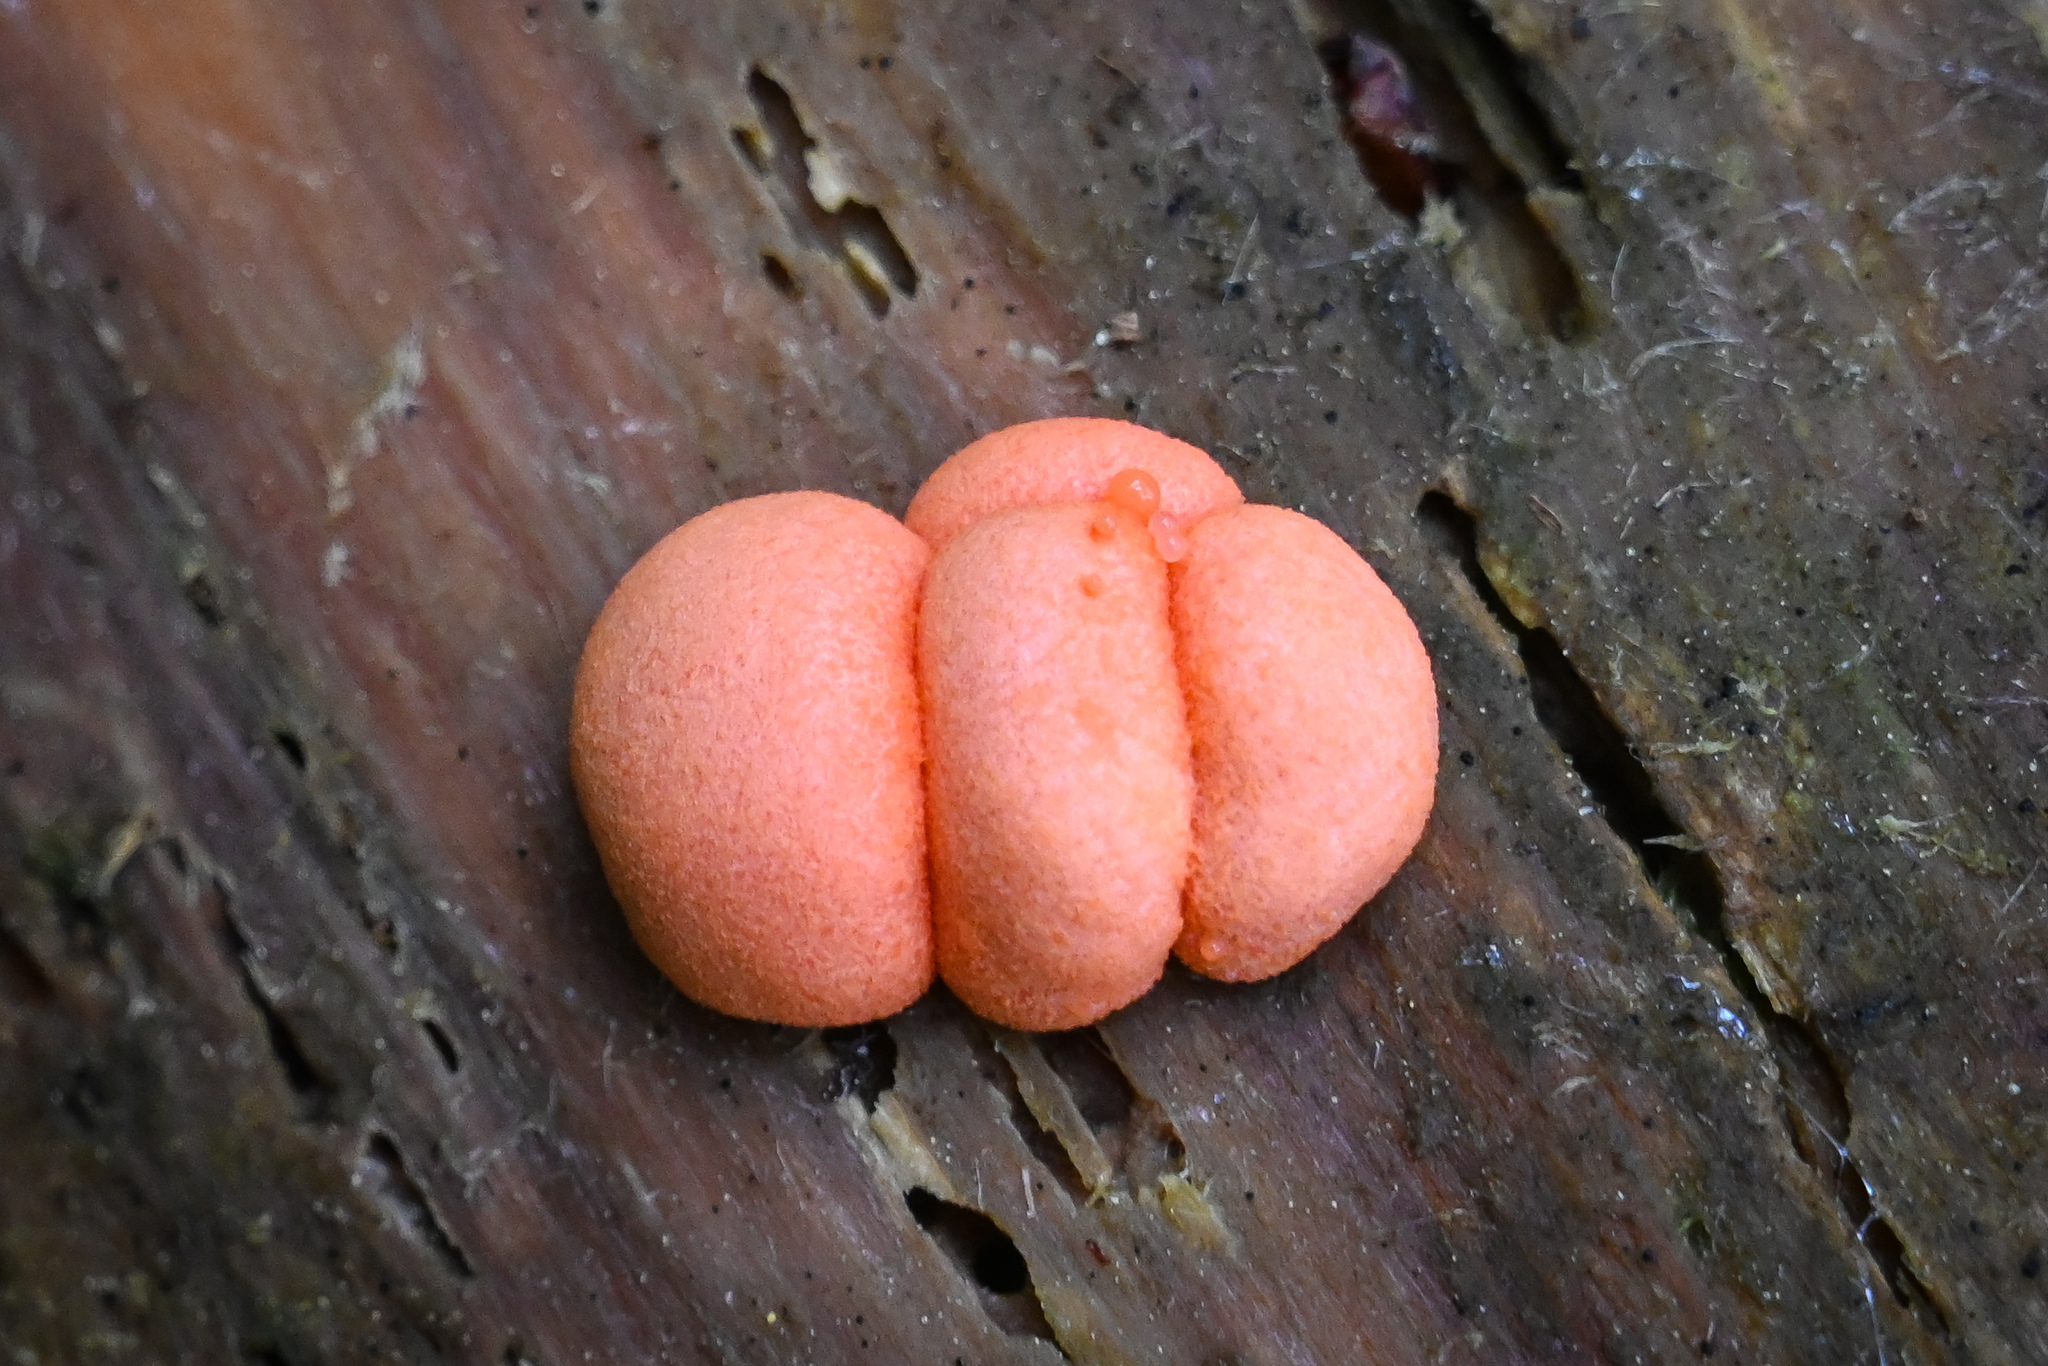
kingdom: Protozoa
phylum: Mycetozoa
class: Myxomycetes
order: Cribrariales
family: Tubiferaceae
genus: Lycogala
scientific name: Lycogala epidendrum
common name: Wolf's milk
